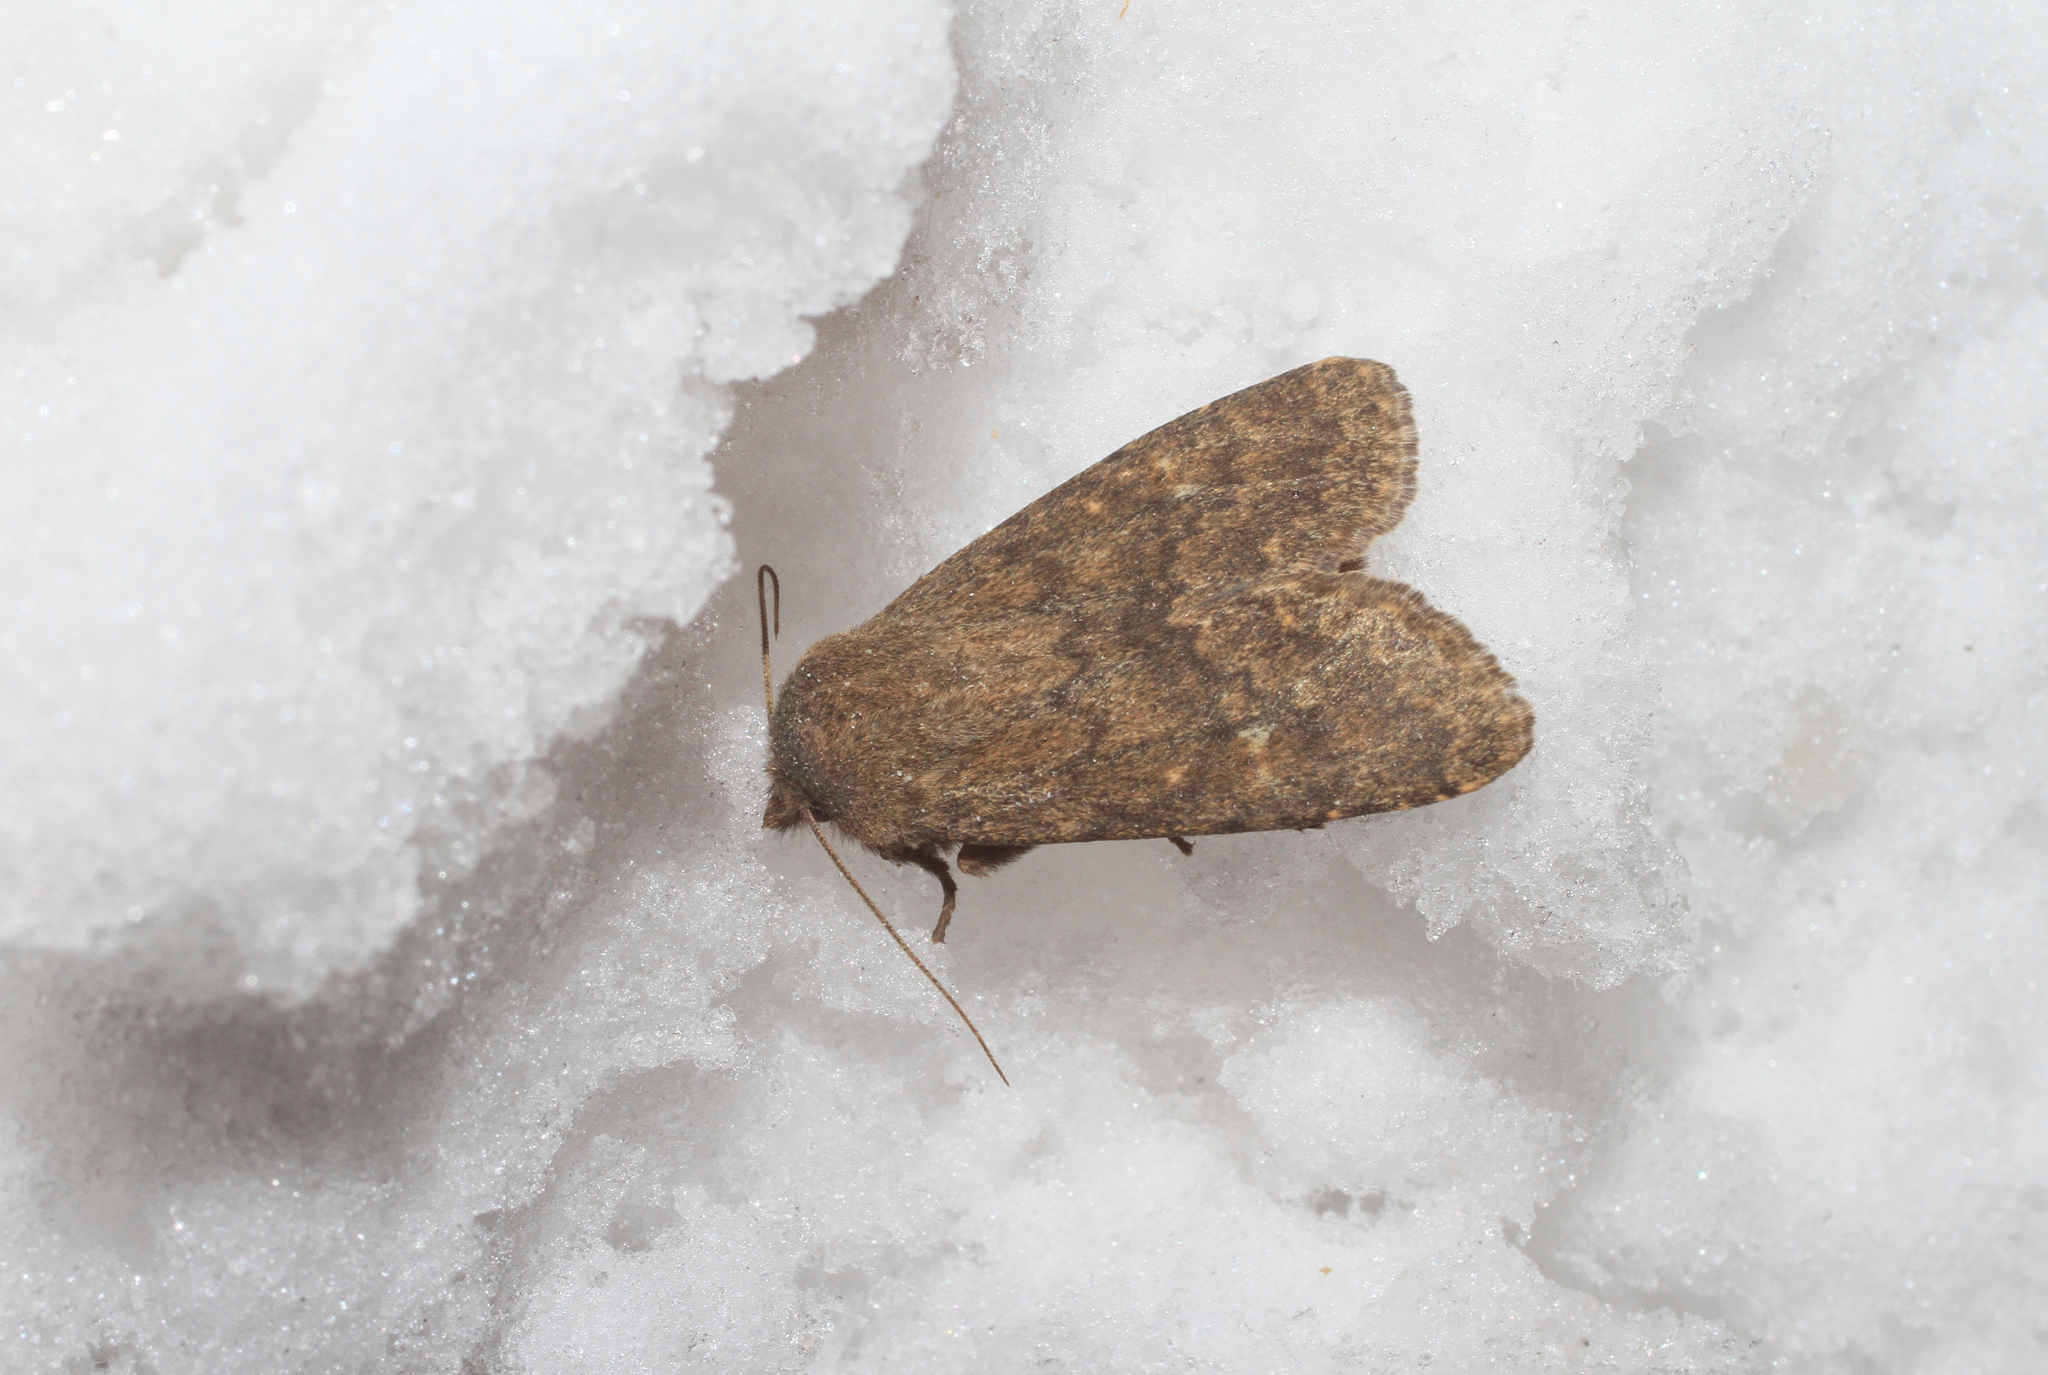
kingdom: Animalia
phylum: Arthropoda
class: Insecta
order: Lepidoptera
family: Noctuidae
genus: Dasypolia
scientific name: Dasypolia templi
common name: Brindled ochre
